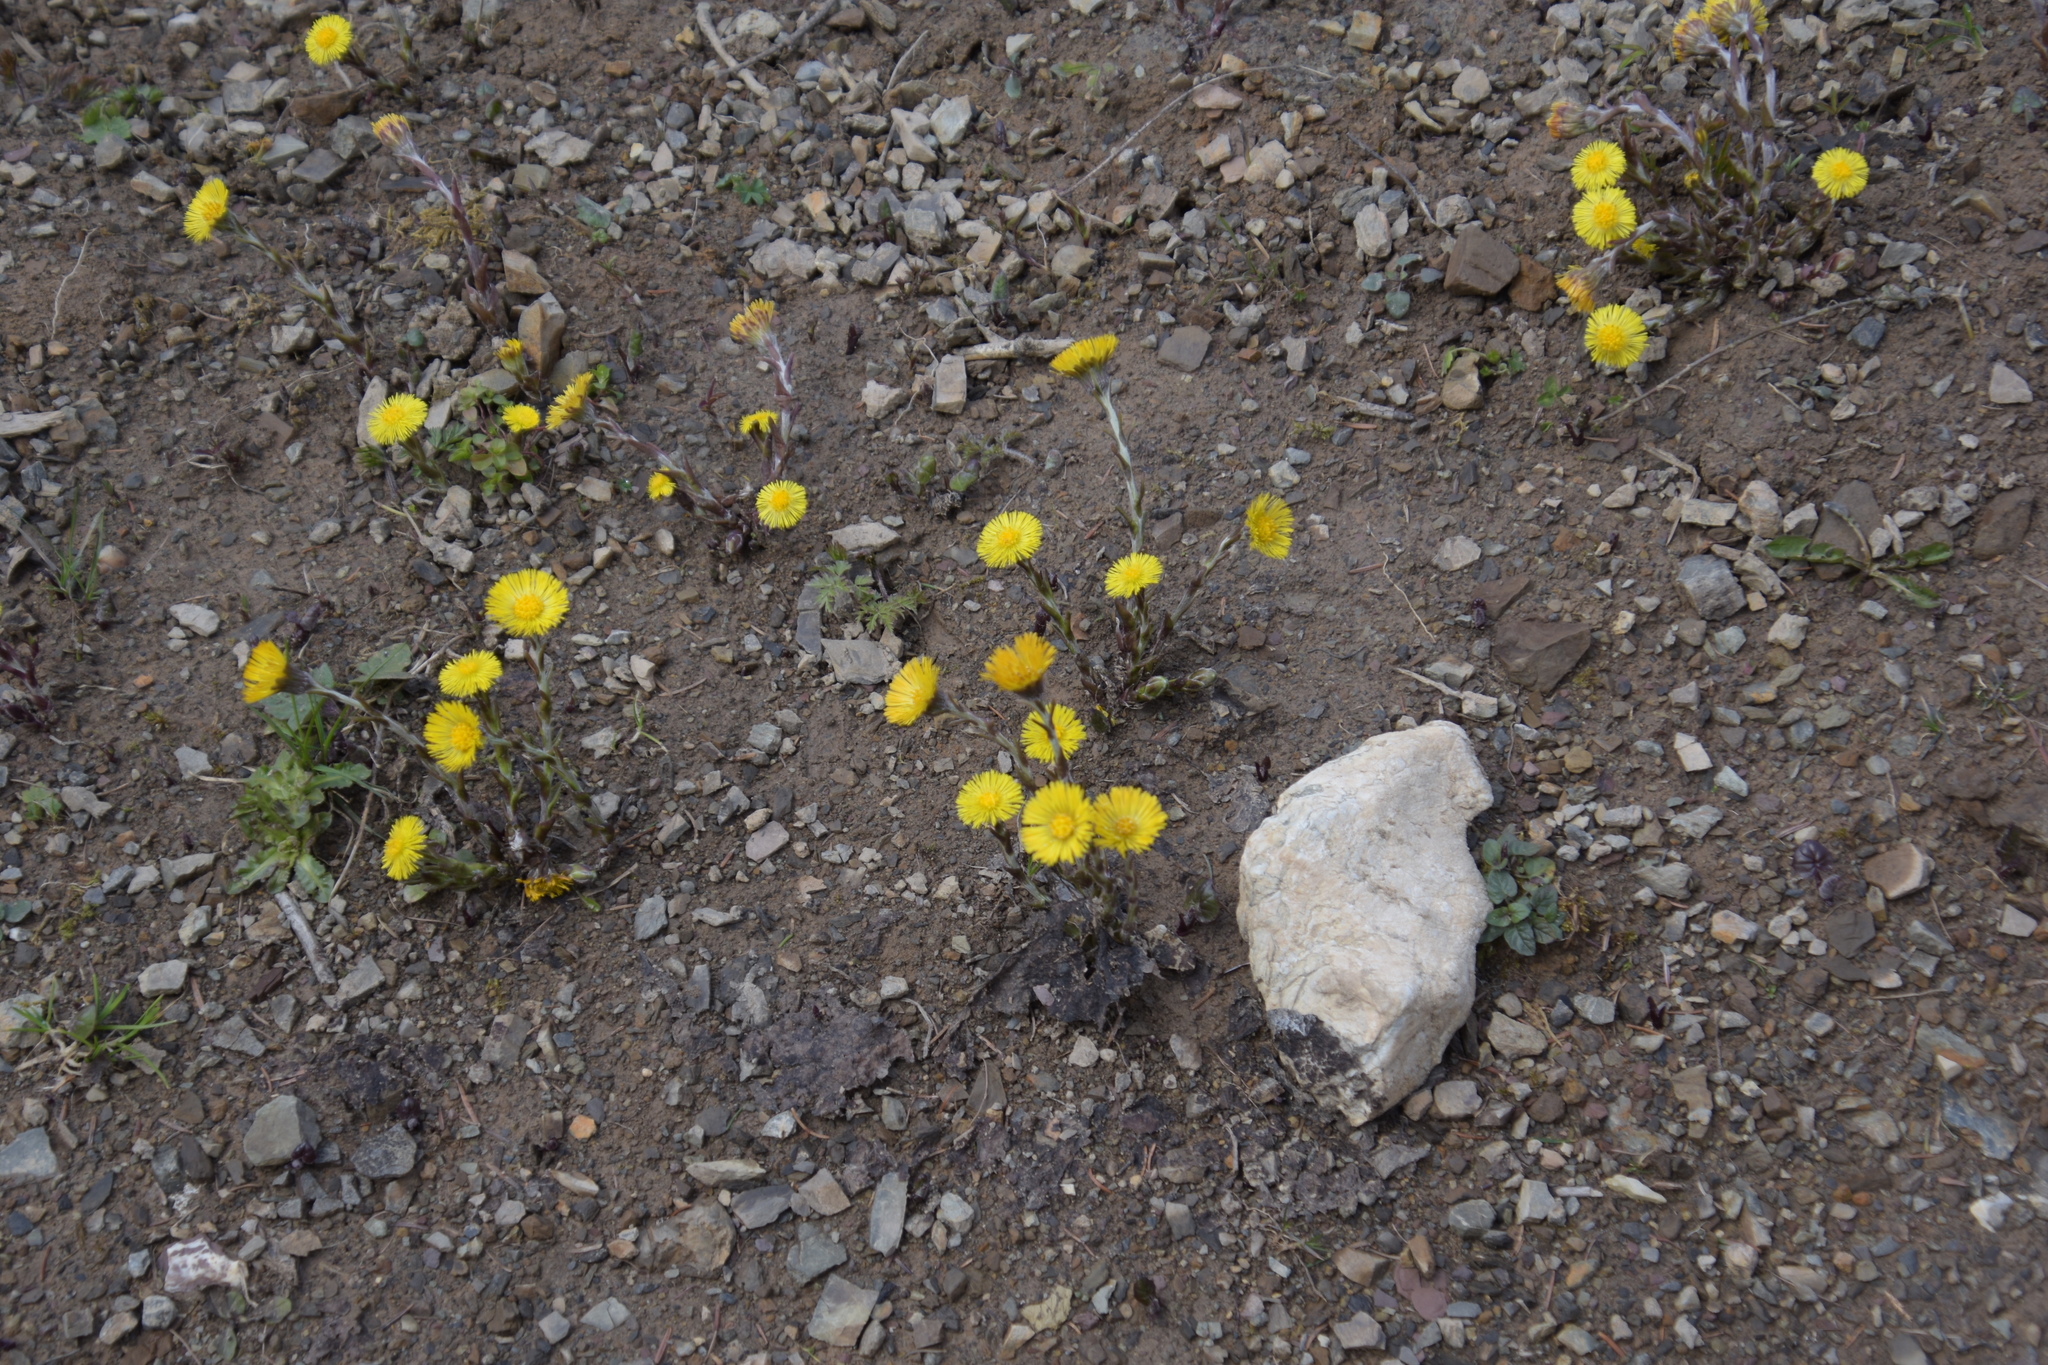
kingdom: Plantae
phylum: Tracheophyta
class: Magnoliopsida
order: Asterales
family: Asteraceae
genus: Tussilago
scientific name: Tussilago farfara
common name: Coltsfoot
